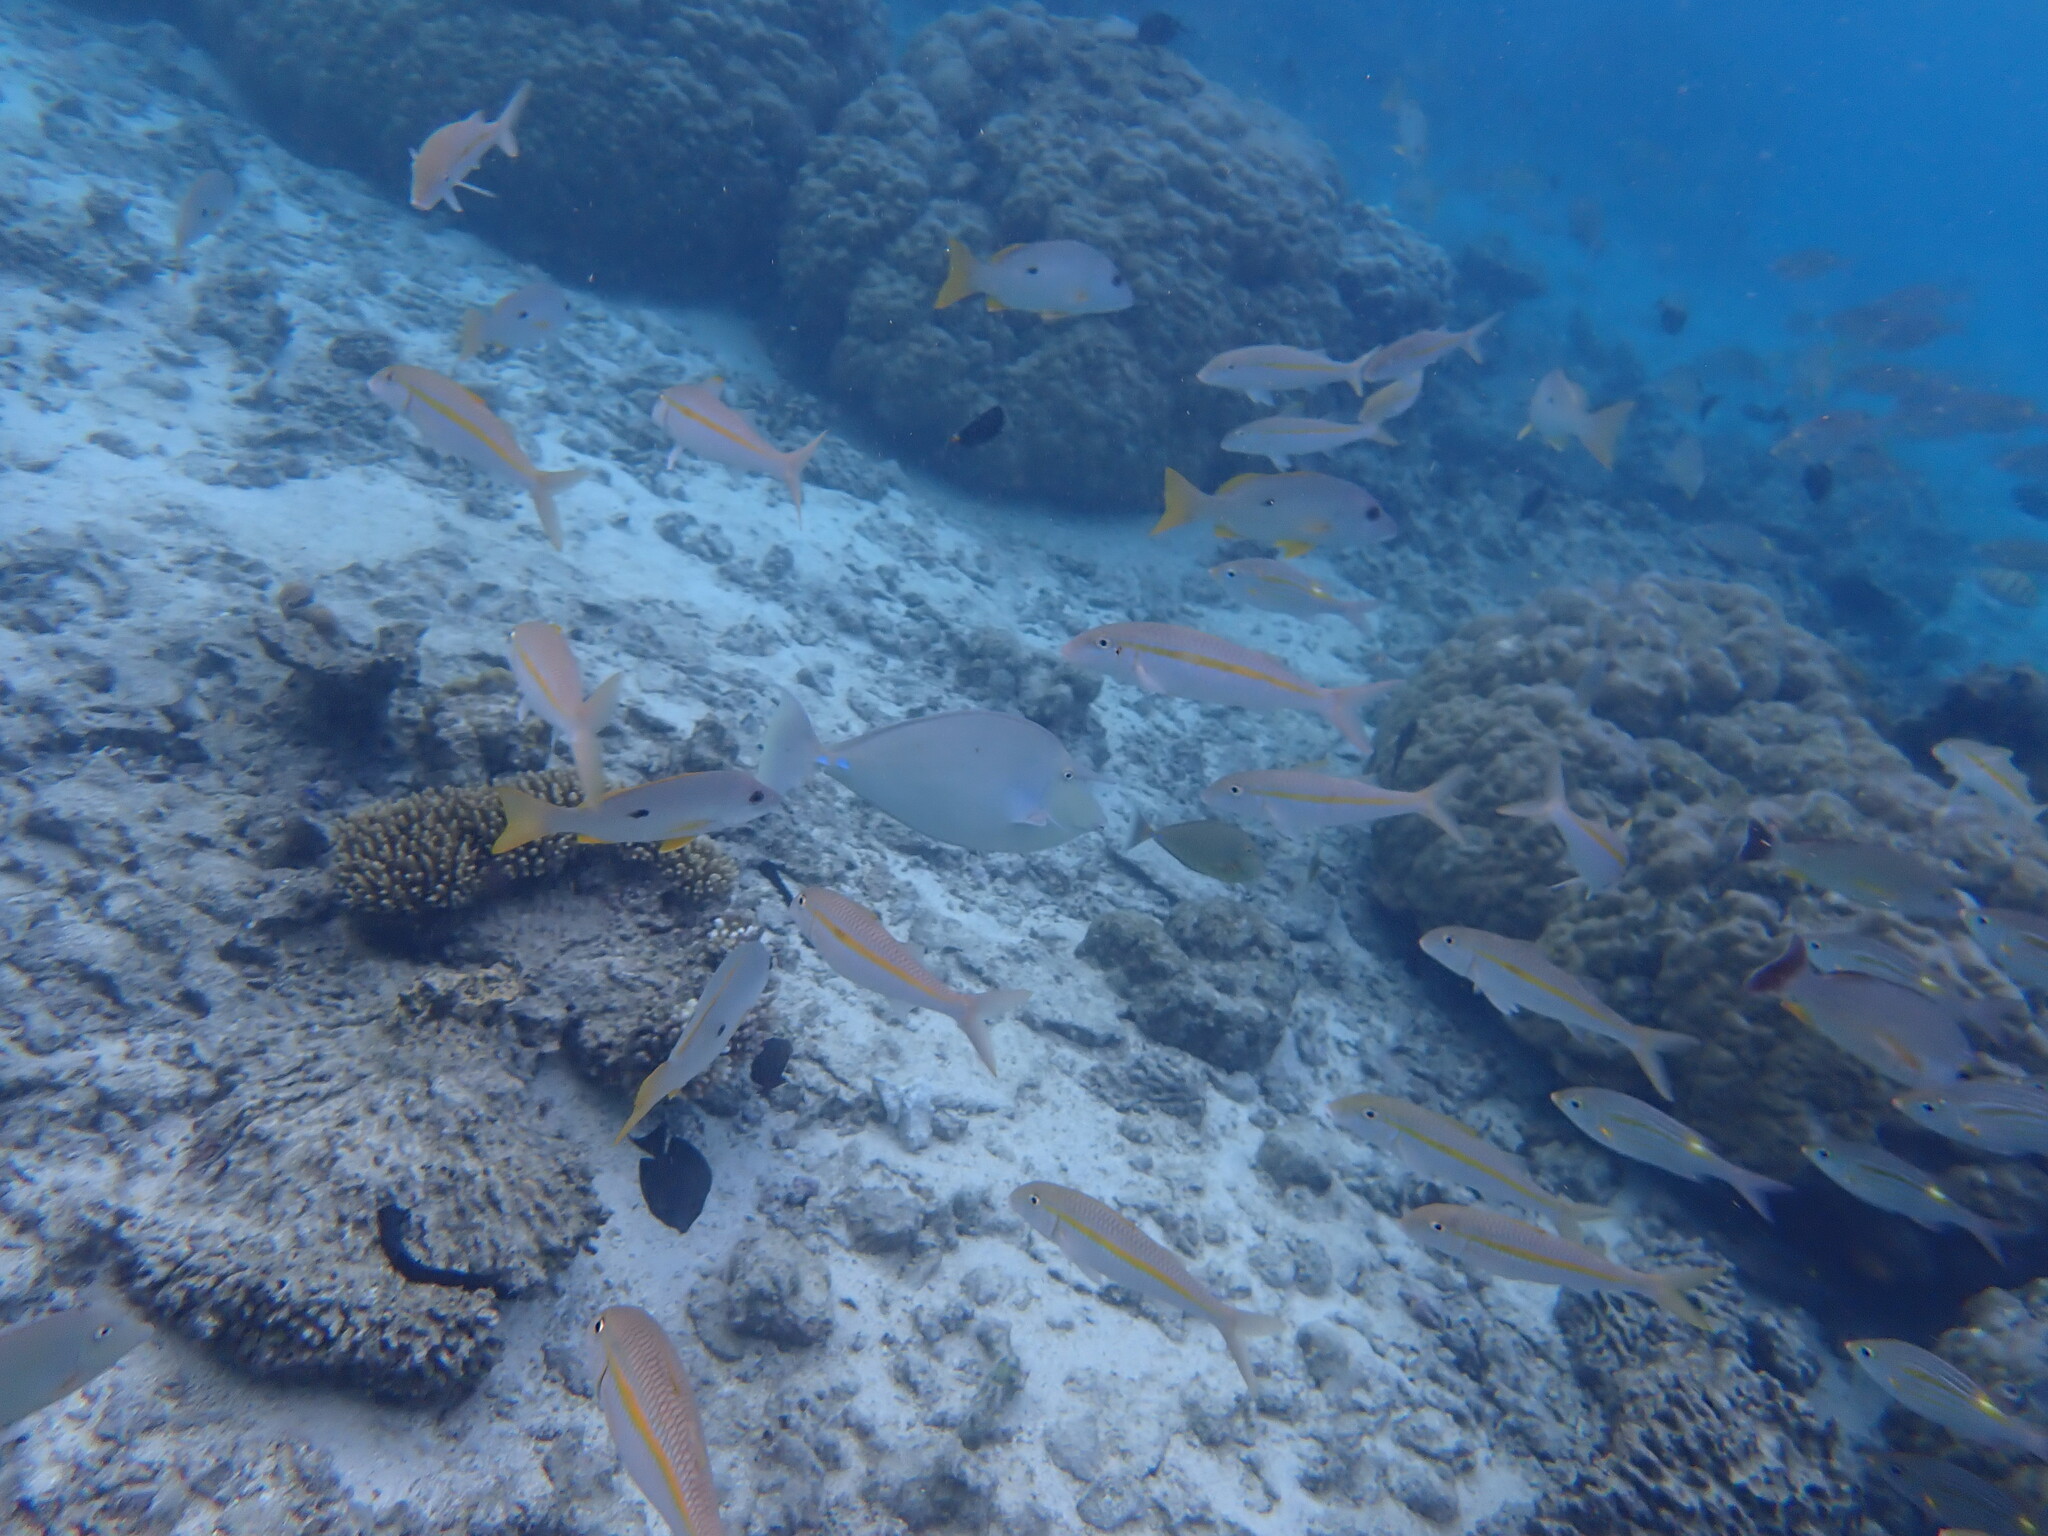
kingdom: Animalia
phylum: Chordata
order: Perciformes
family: Lethrinidae
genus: Gnathodentex
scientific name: Gnathodentex aureolineatus
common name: Gold-lined sea bream
